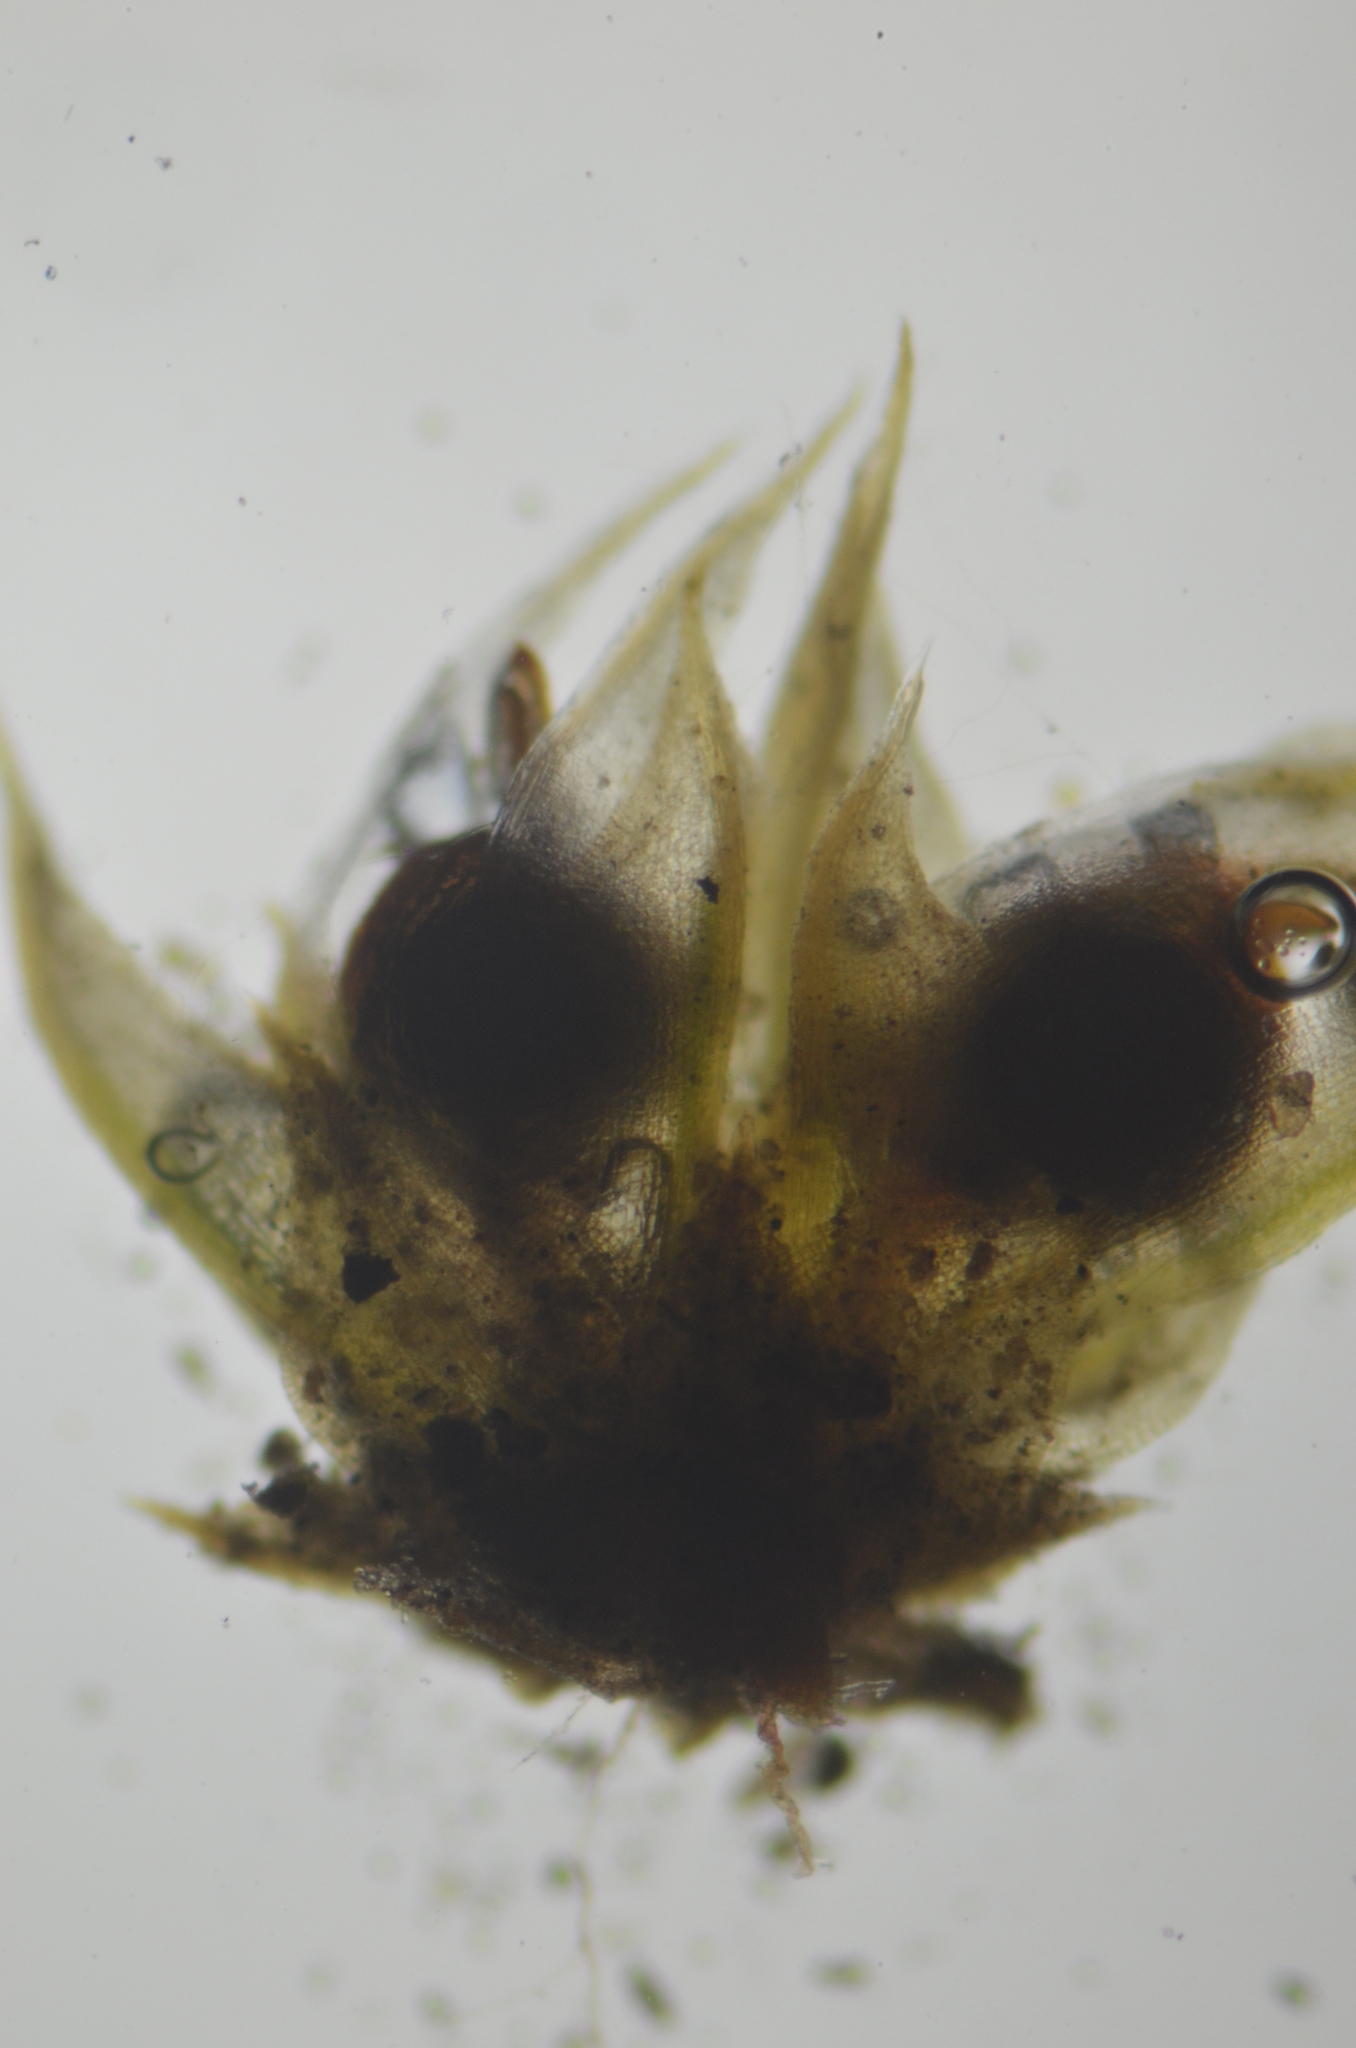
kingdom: Plantae
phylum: Bryophyta
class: Bryopsida
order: Pottiales
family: Pottiaceae
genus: Tortula
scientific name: Tortula acaulon
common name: Cuspidate earth moss
